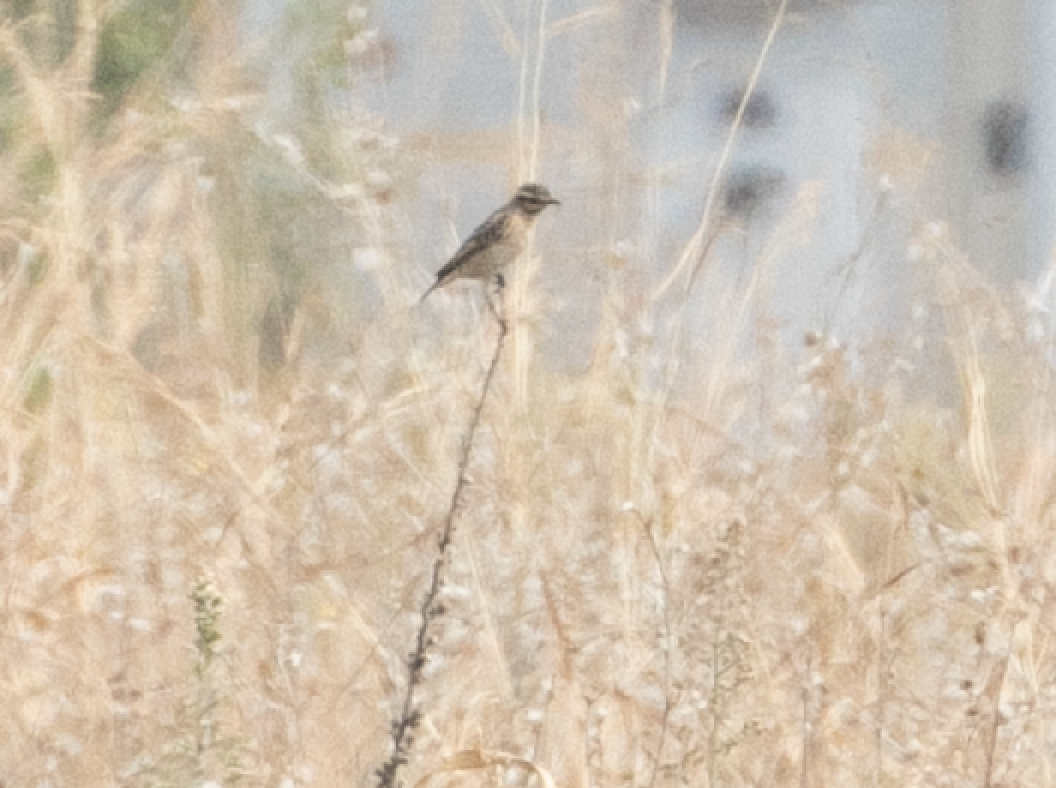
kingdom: Animalia
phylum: Chordata
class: Aves
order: Passeriformes
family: Muscicapidae
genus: Saxicola
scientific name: Saxicola rubetra
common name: Whinchat
